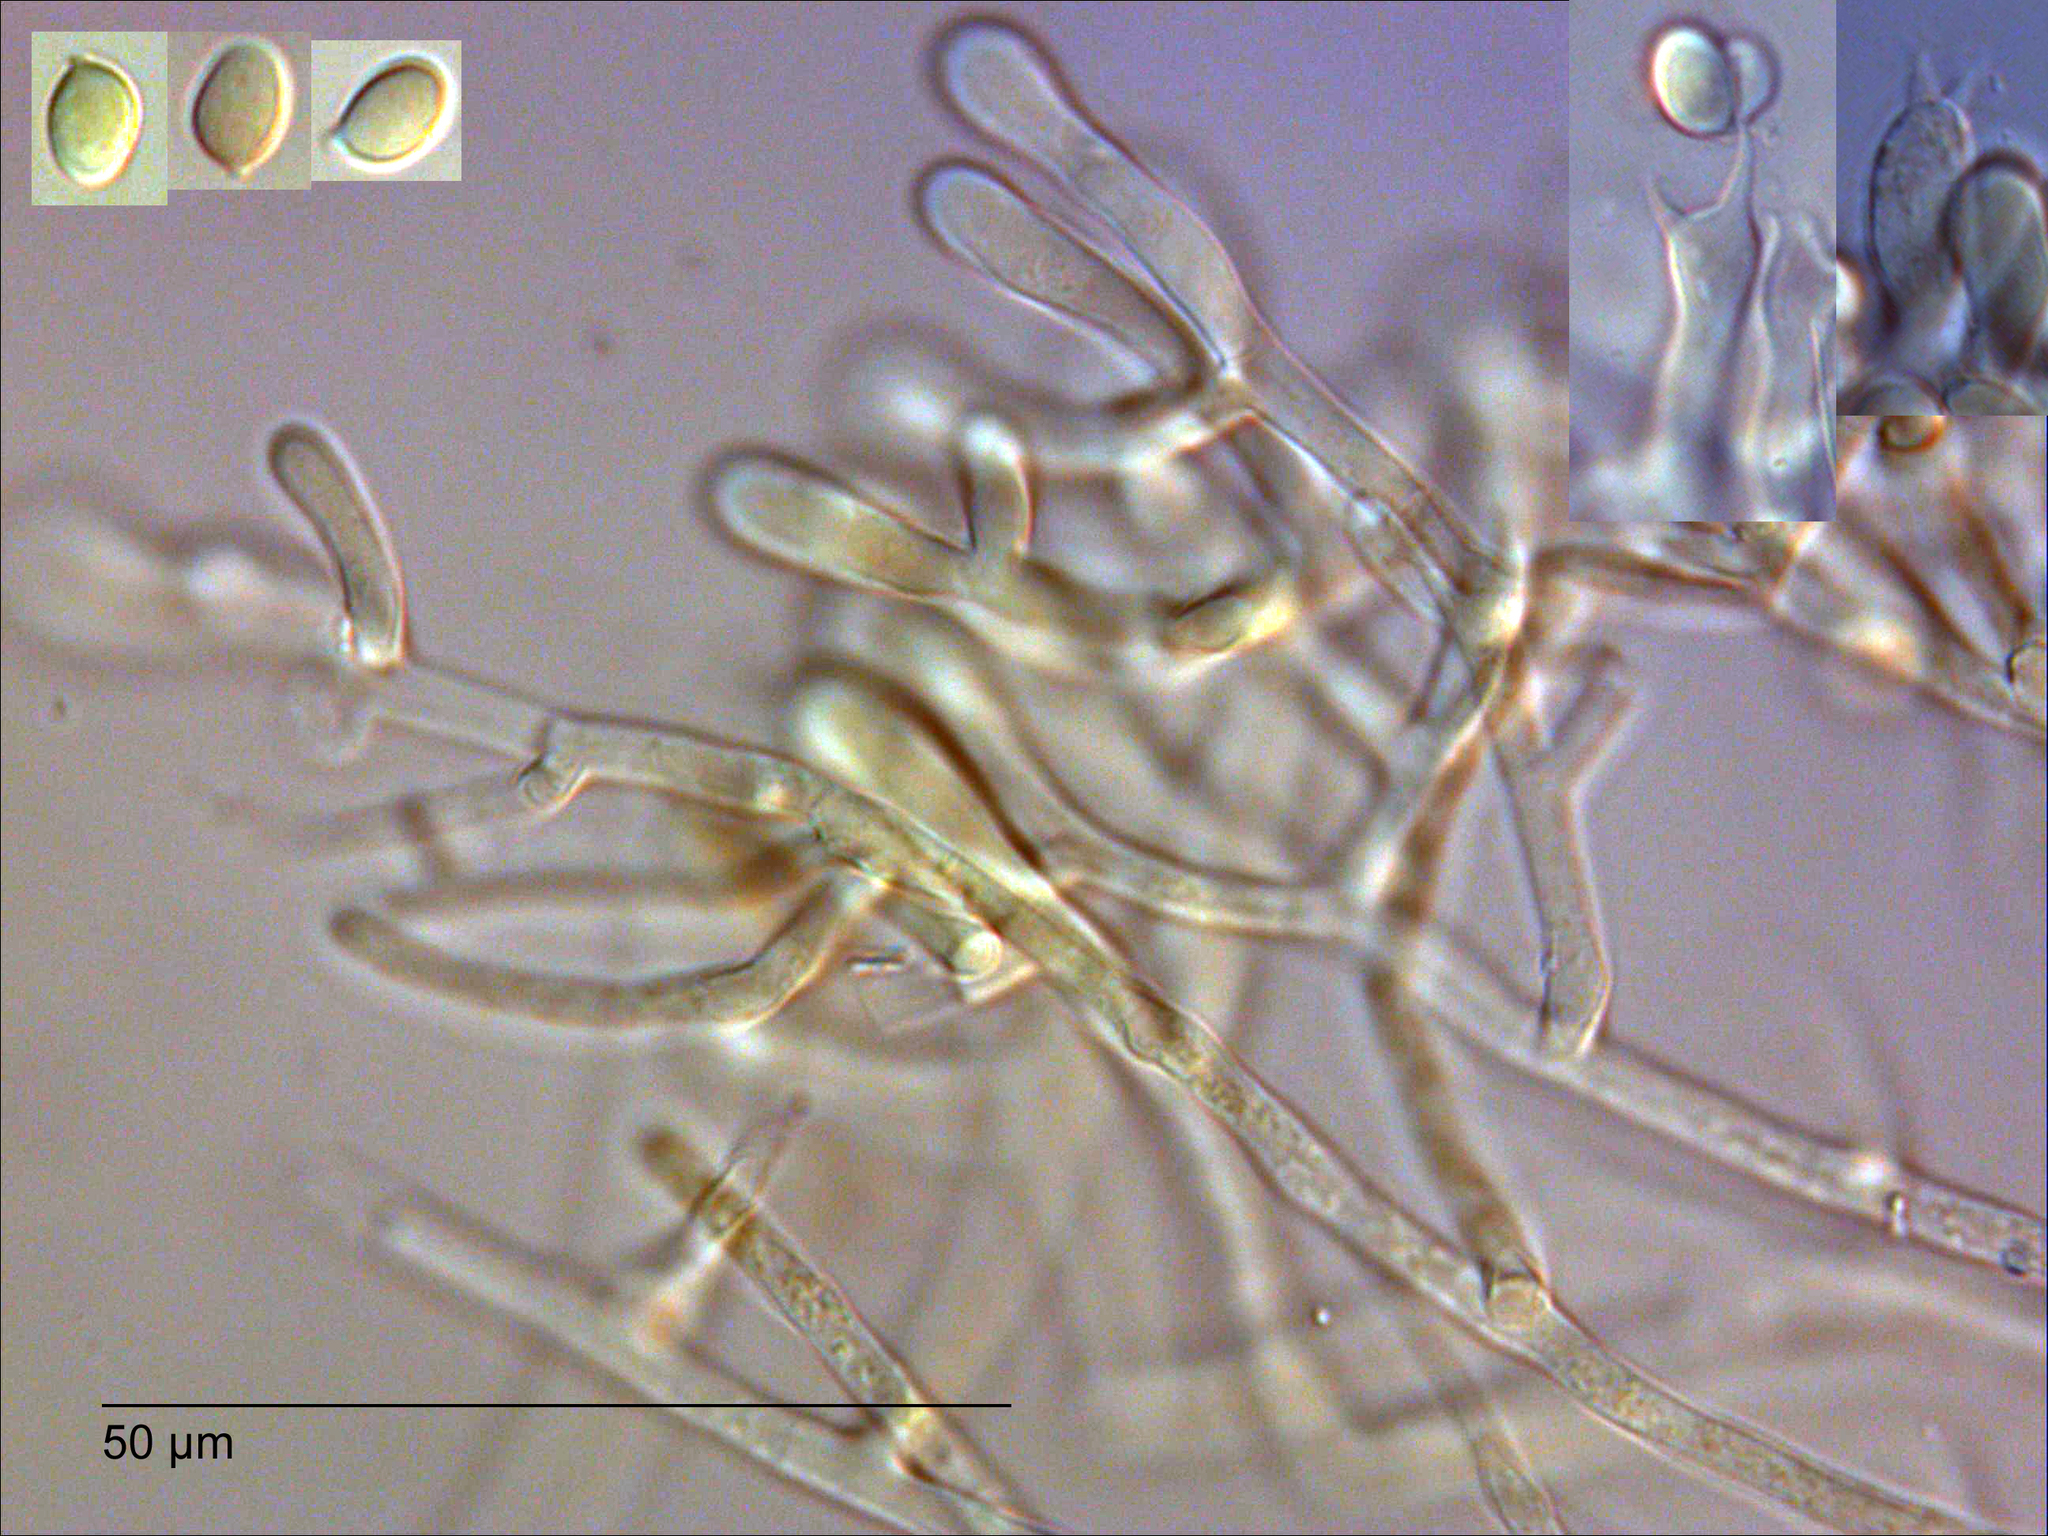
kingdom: Fungi
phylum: Basidiomycota
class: Agaricomycetes
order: Atheliales
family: Atheliaceae
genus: Athelia
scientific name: Athelia arachnoidea
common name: Candelabra duster
